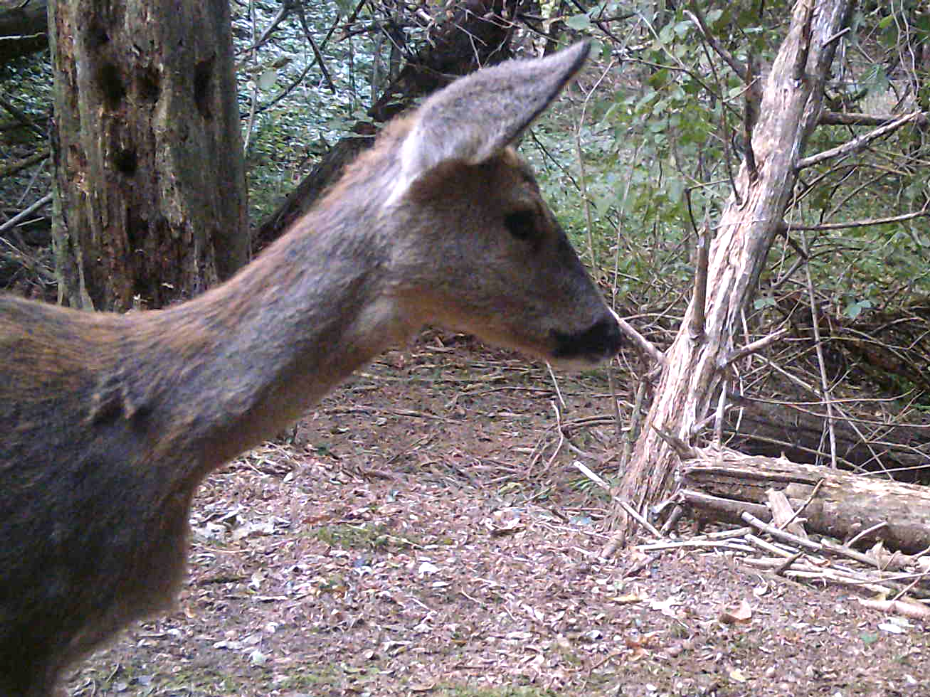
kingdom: Animalia
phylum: Chordata
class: Mammalia
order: Artiodactyla
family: Cervidae
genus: Capreolus
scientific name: Capreolus capreolus
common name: Western roe deer
